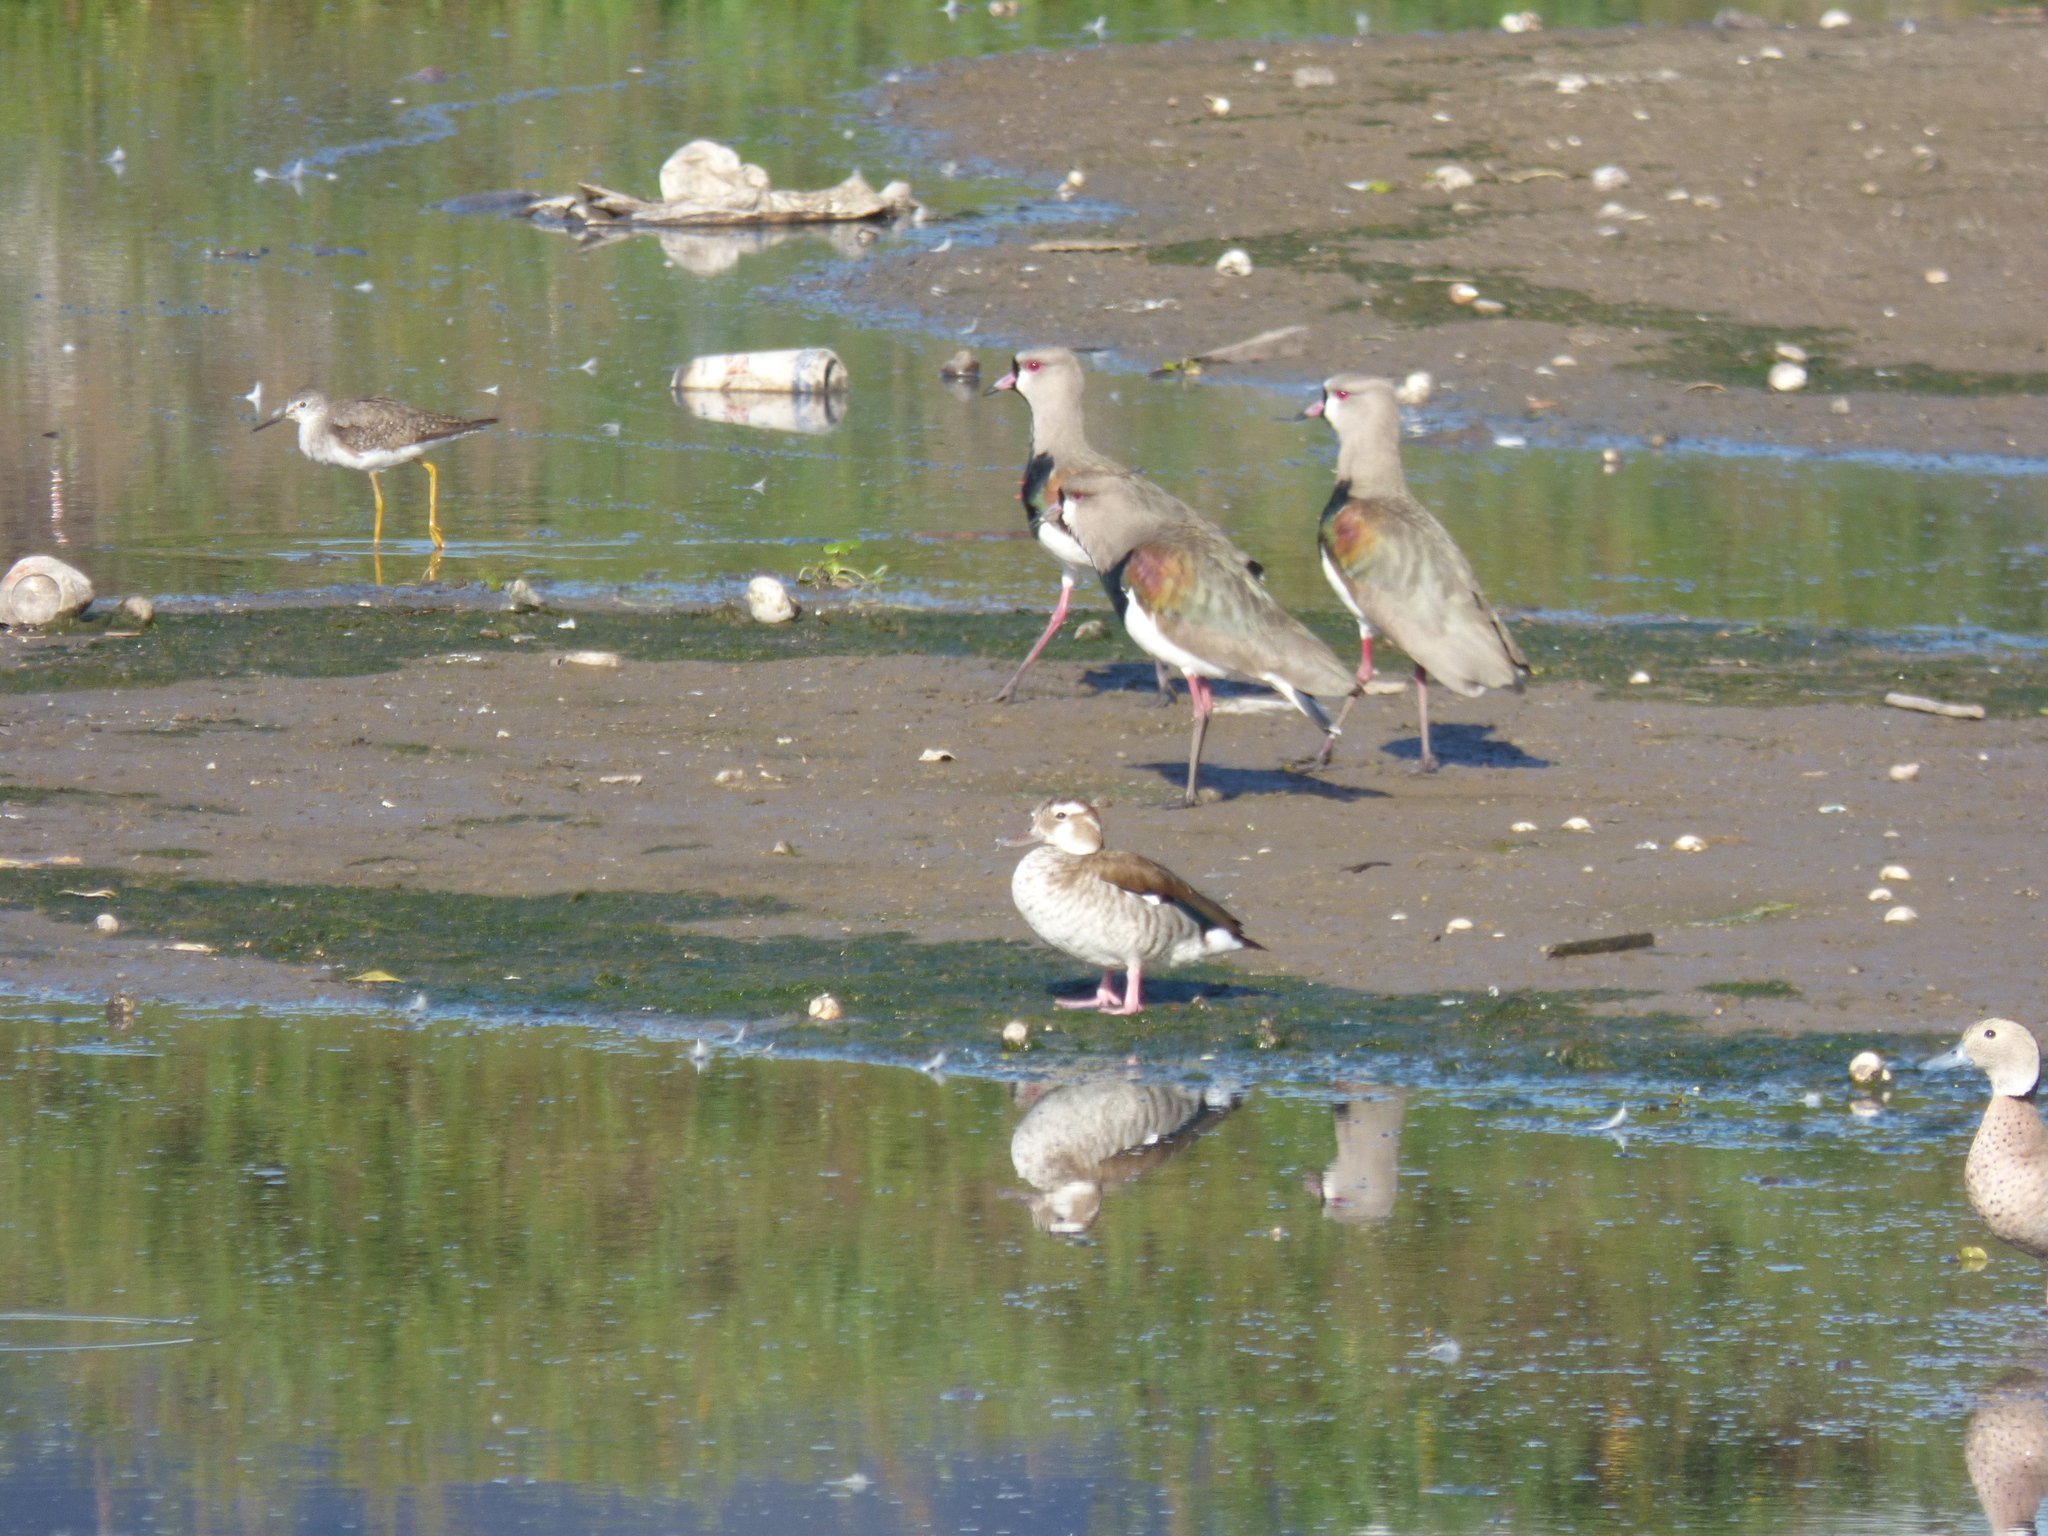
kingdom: Animalia
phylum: Chordata
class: Aves
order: Charadriiformes
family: Charadriidae
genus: Vanellus
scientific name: Vanellus chilensis
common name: Southern lapwing
